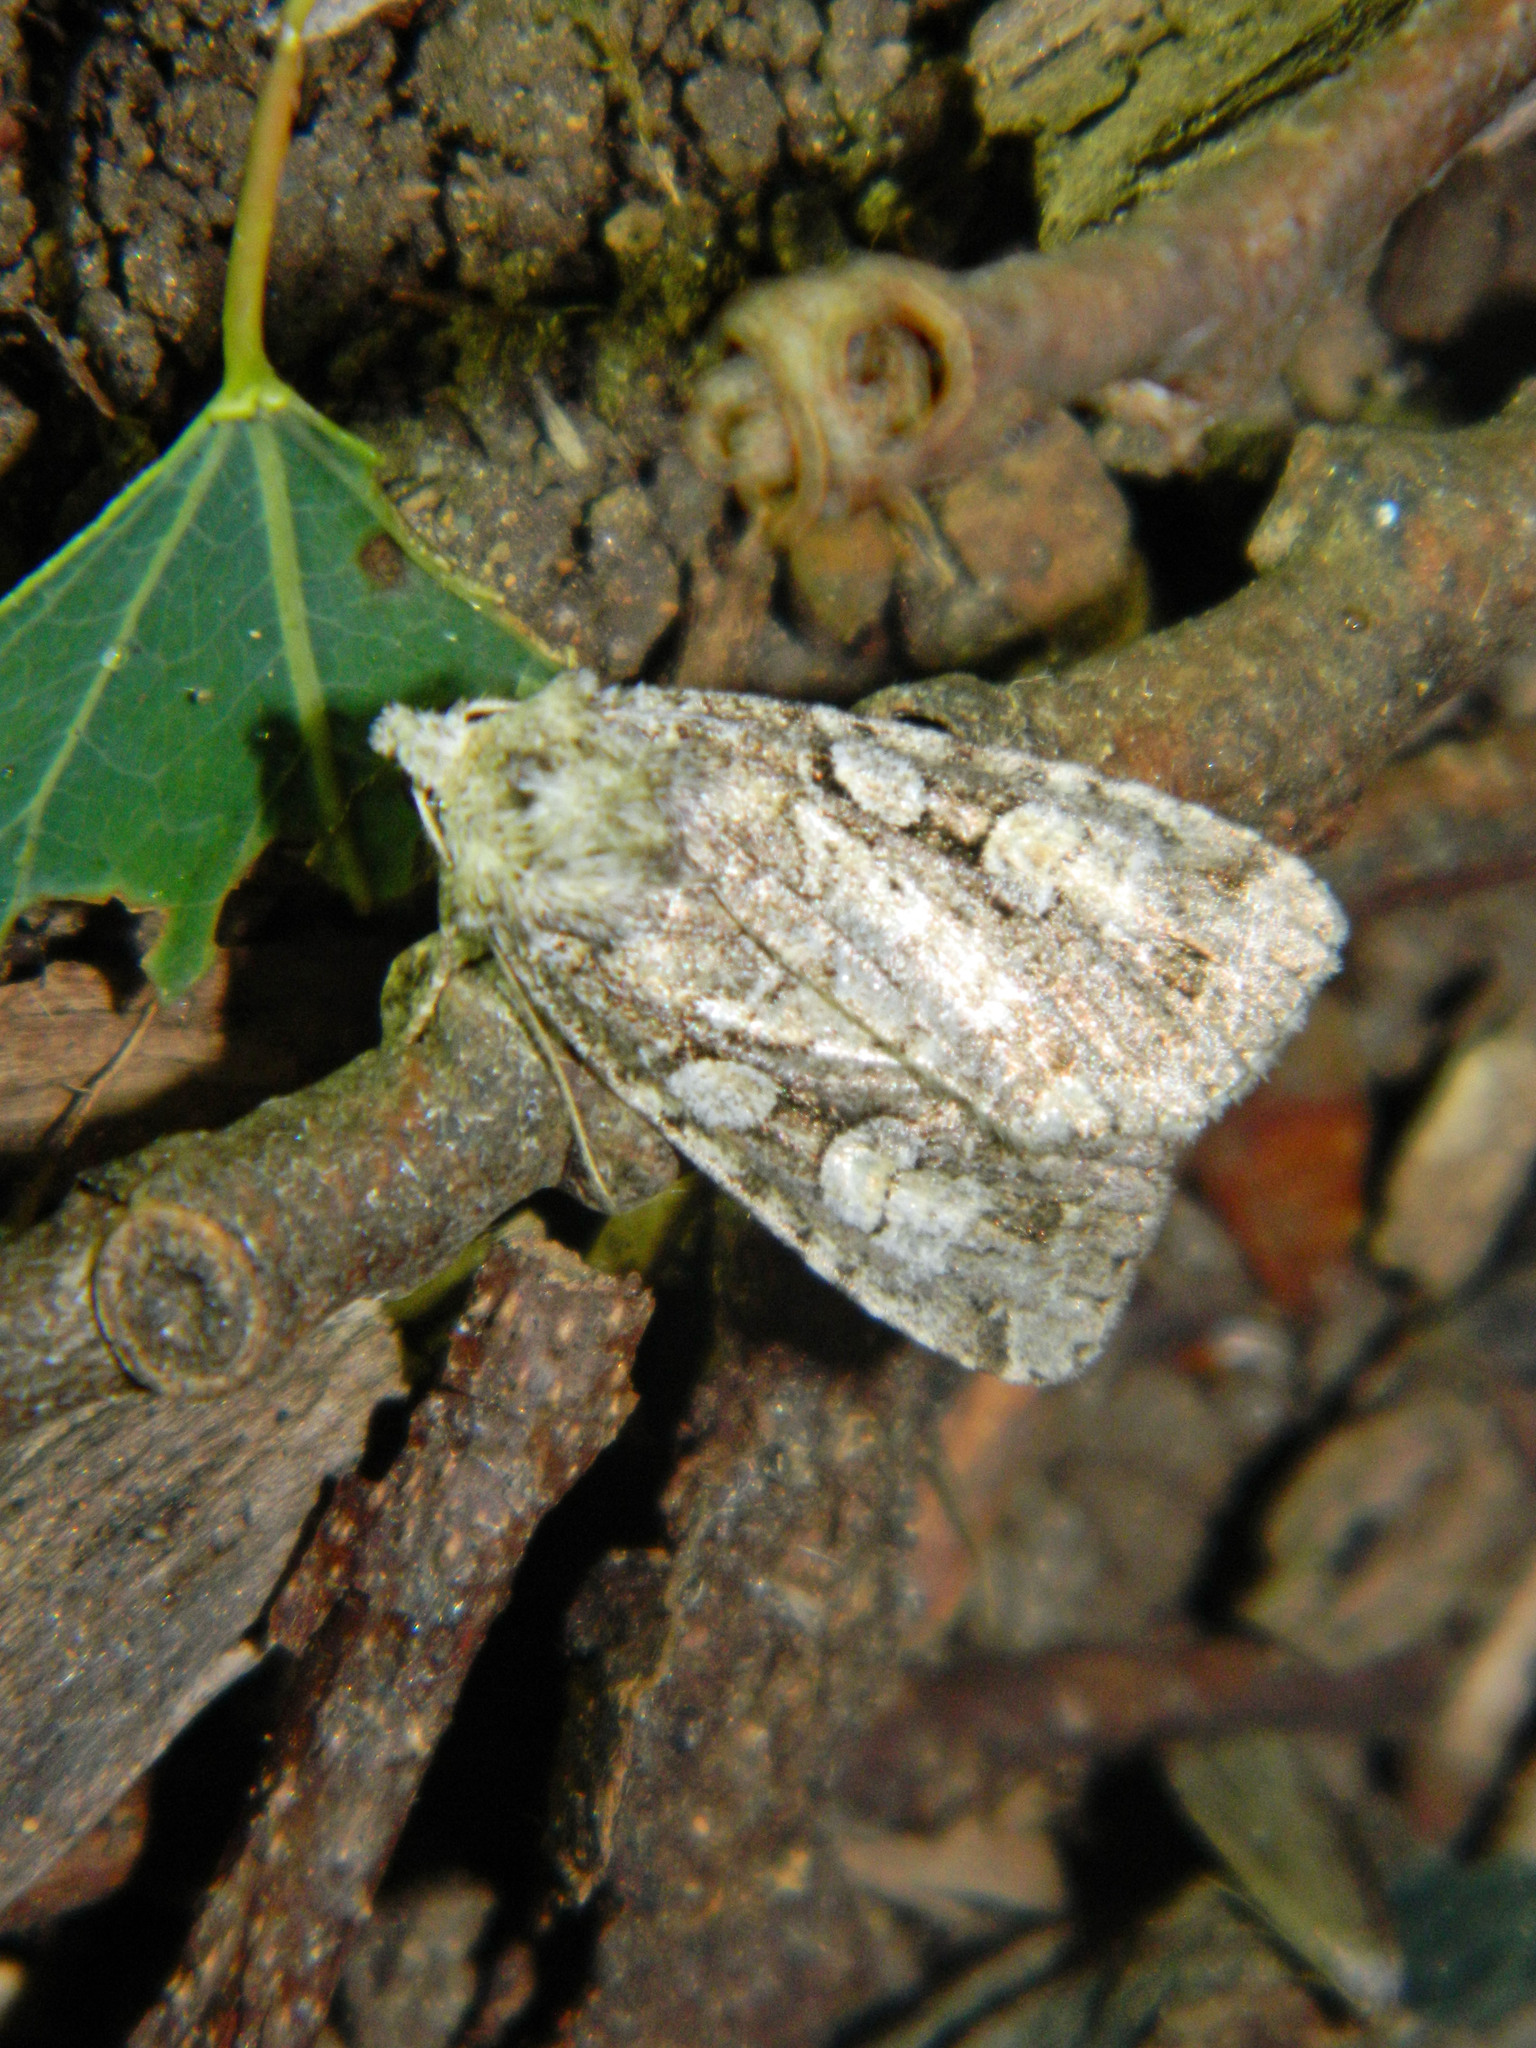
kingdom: Animalia
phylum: Arthropoda
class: Insecta
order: Lepidoptera
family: Noctuidae
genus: Anaplectoides
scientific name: Anaplectoides pressus
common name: Dappled dart
